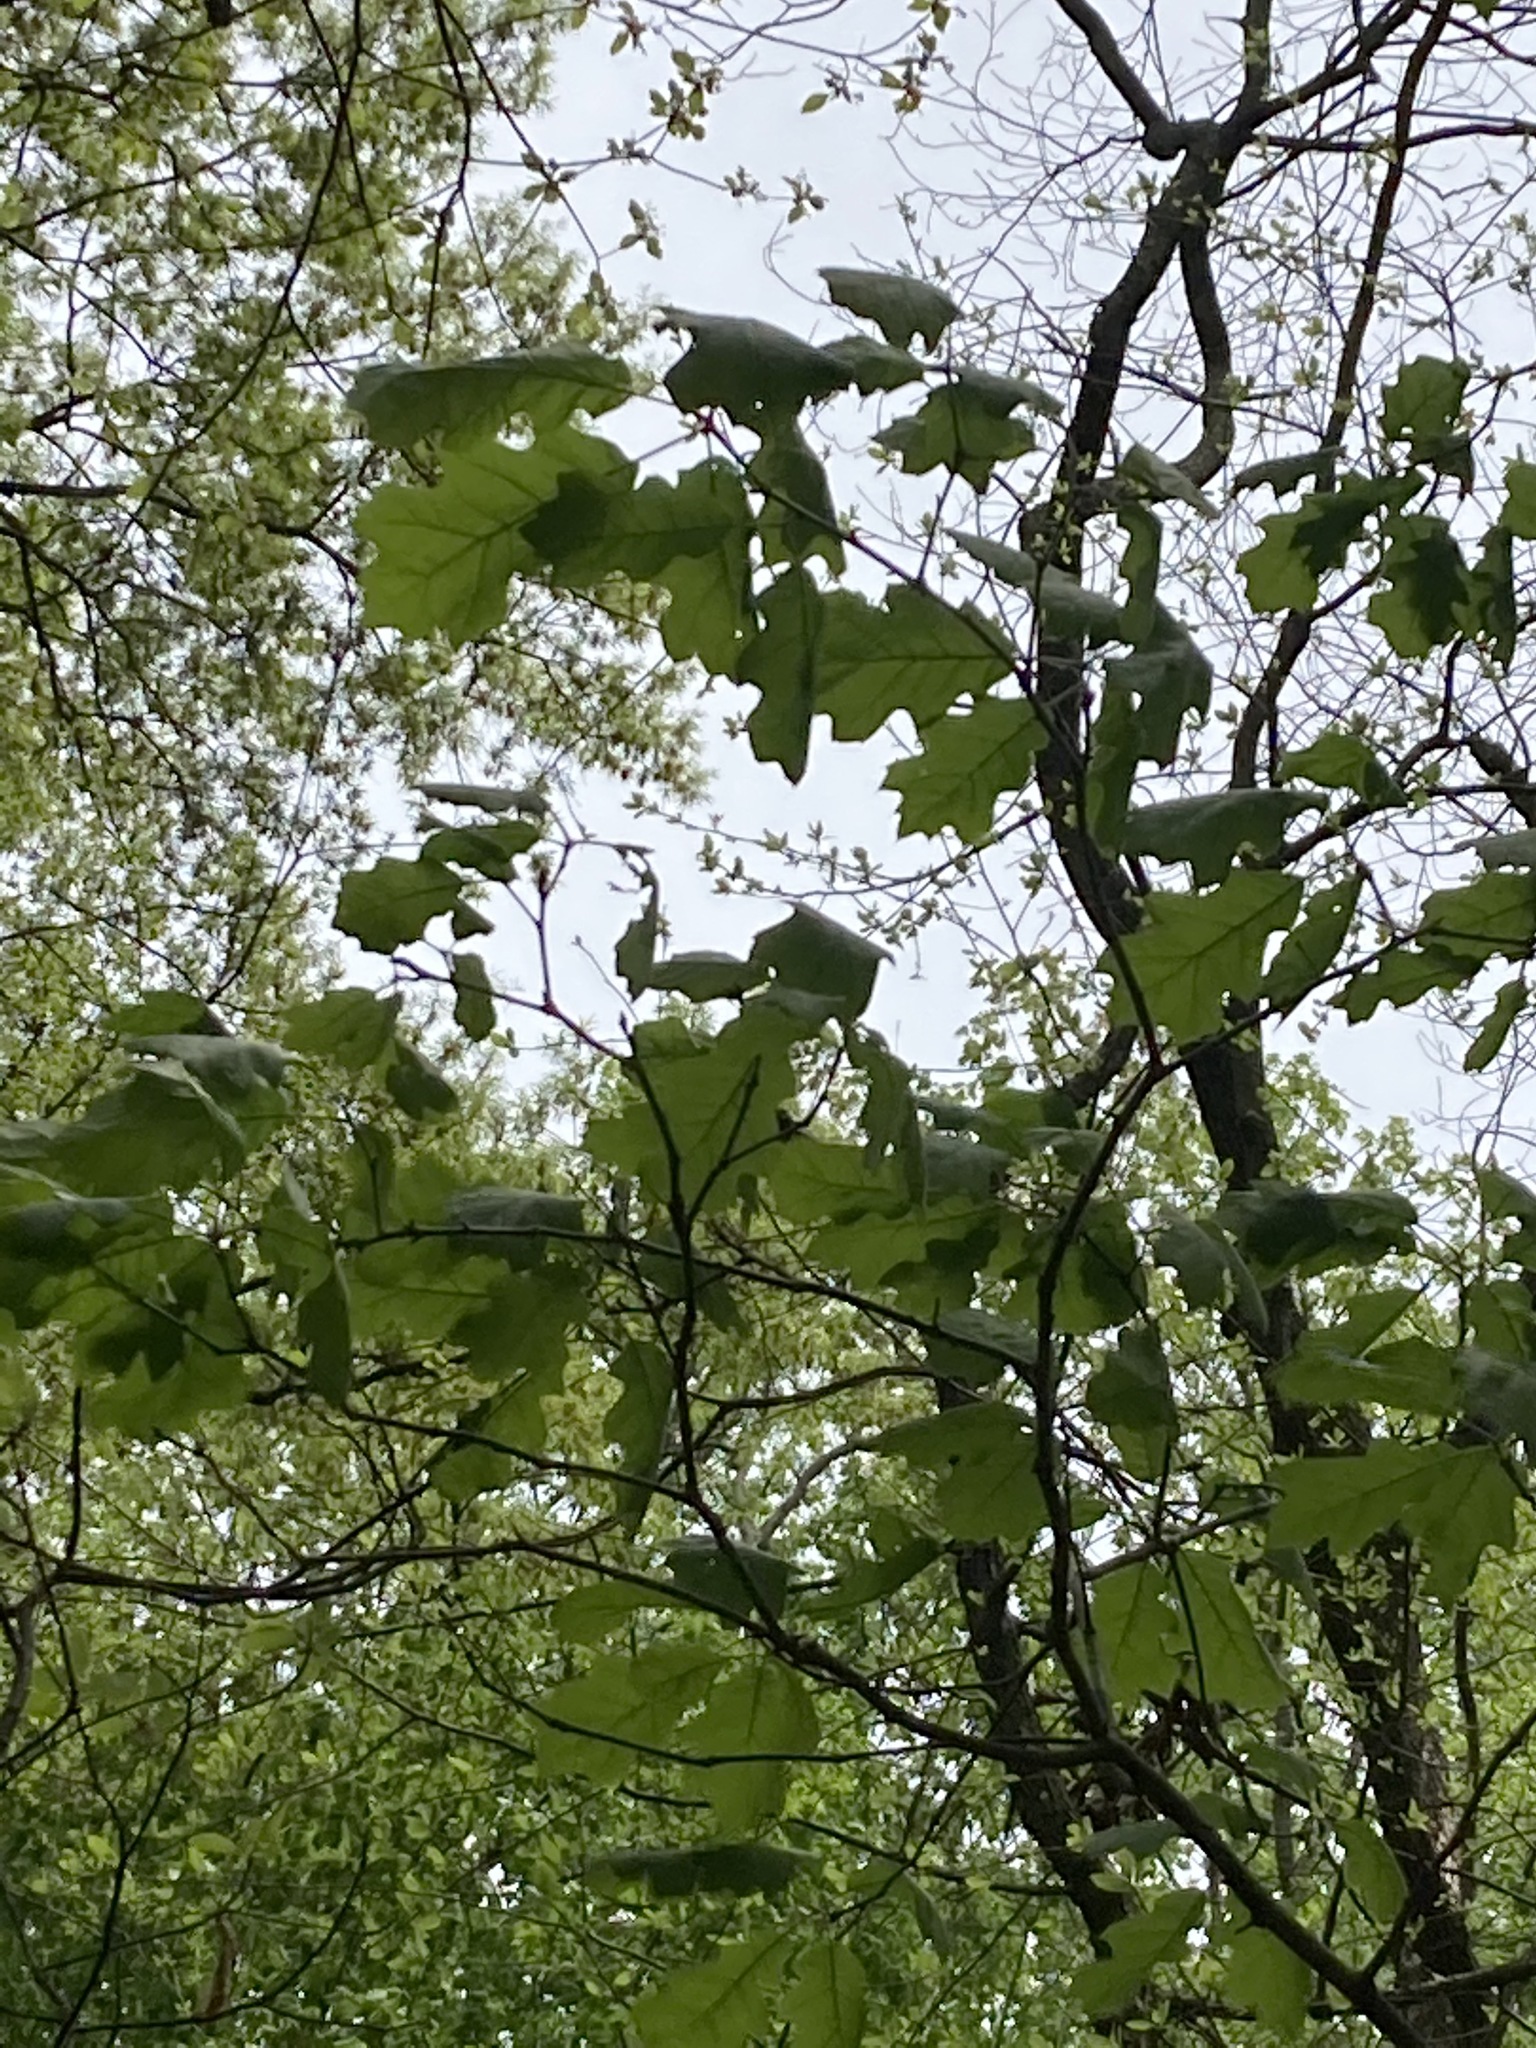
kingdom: Plantae
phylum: Tracheophyta
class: Magnoliopsida
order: Fagales
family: Fagaceae
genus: Quercus
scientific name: Quercus bicolor
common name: Swamp white oak
